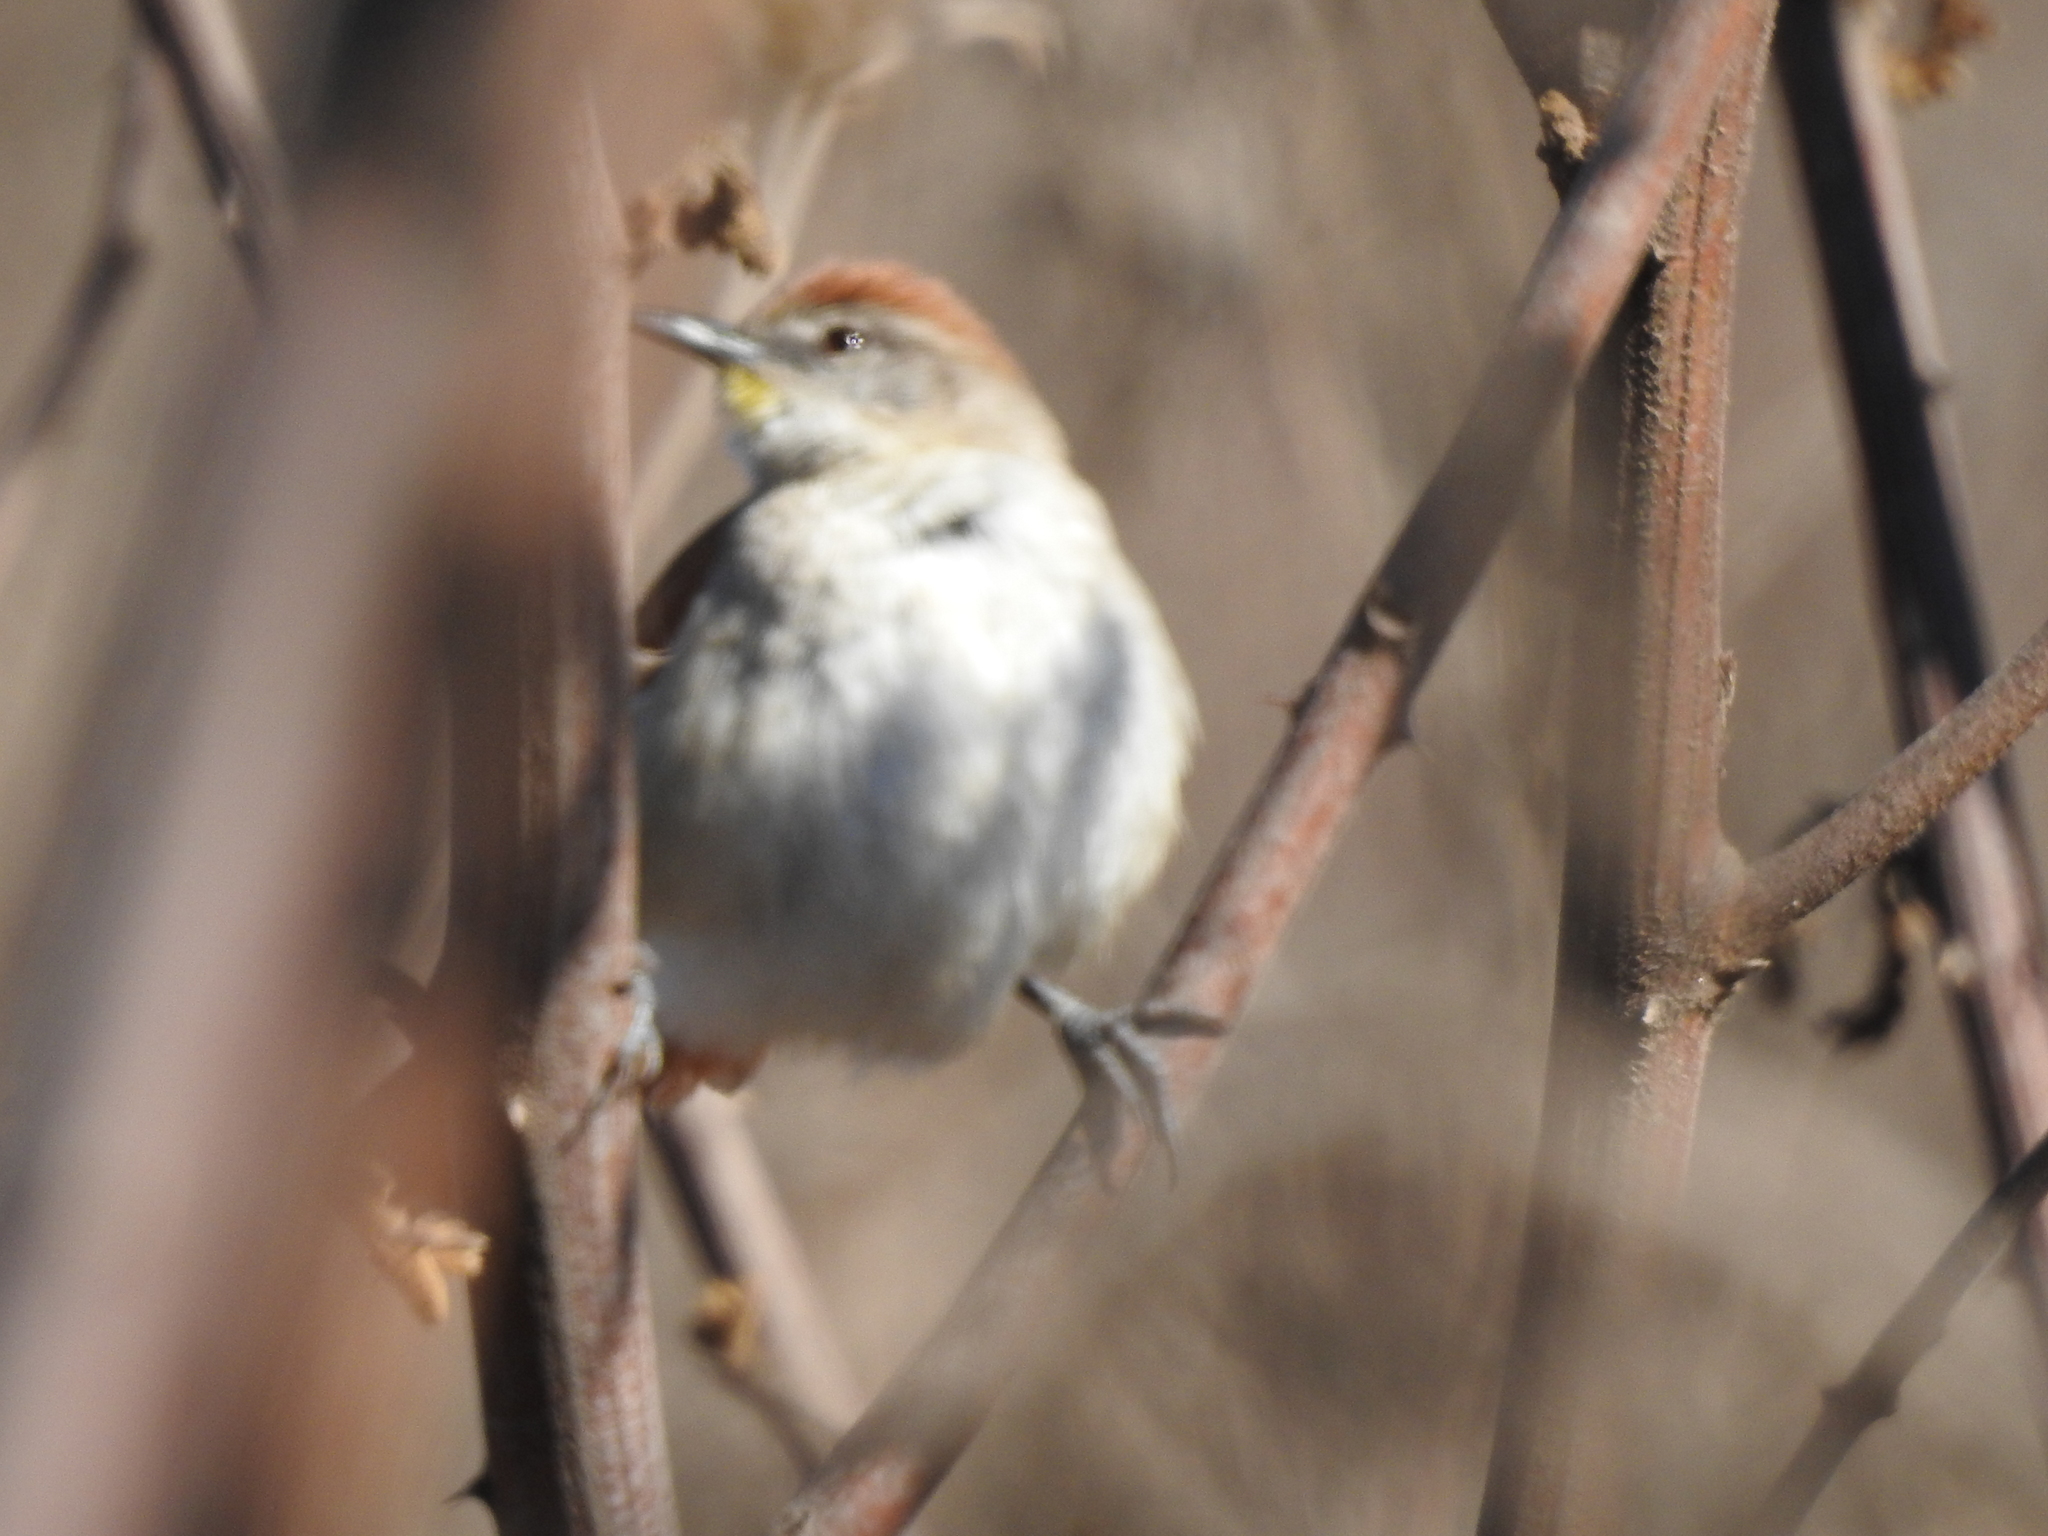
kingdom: Animalia
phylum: Chordata
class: Aves
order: Passeriformes
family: Furnariidae
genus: Certhiaxis
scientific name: Certhiaxis cinnamomeus
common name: Yellow-chinned spinetail
